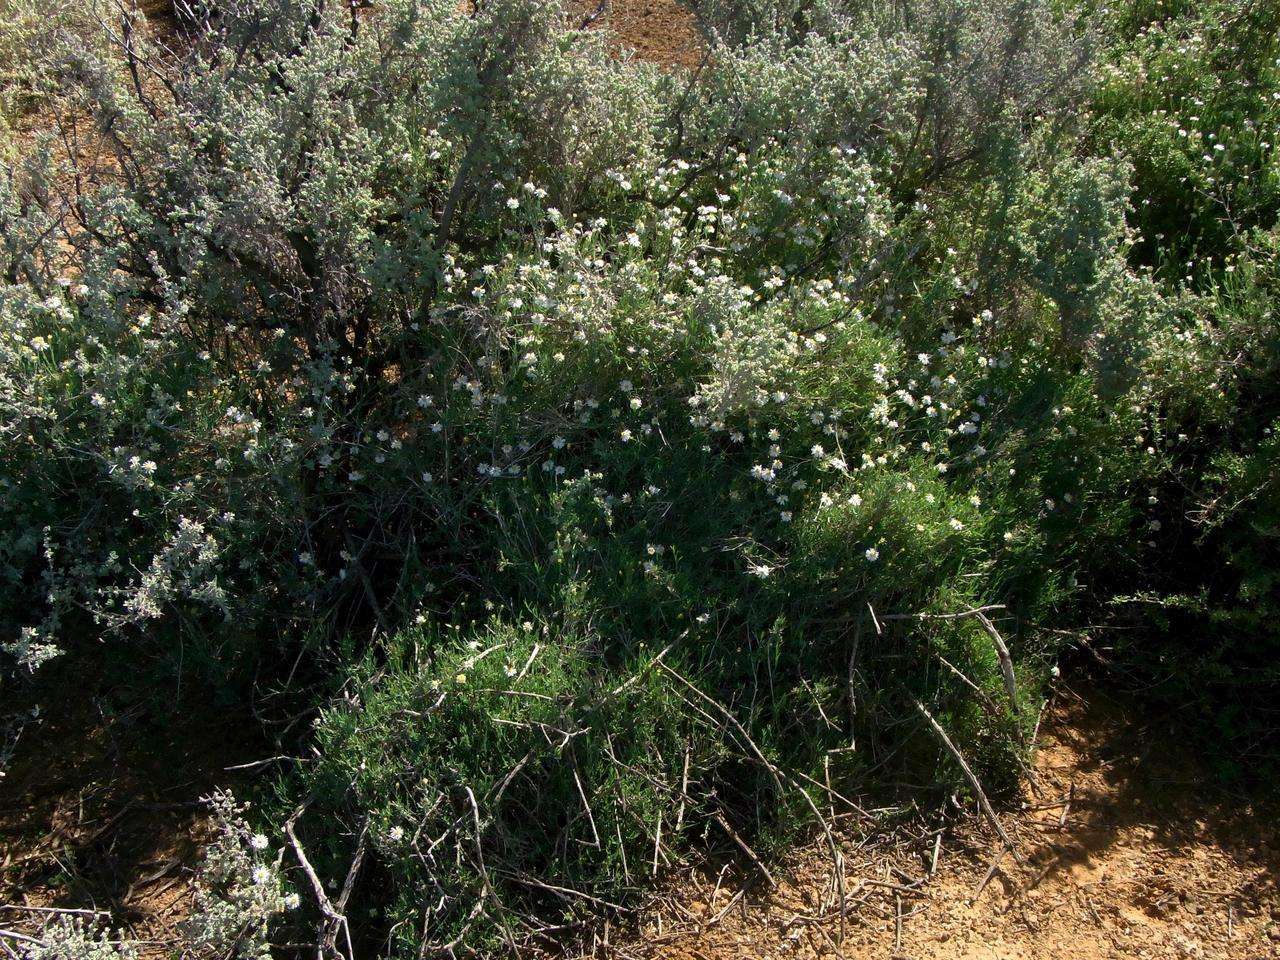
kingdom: Plantae
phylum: Tracheophyta
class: Magnoliopsida
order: Asterales
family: Asteraceae
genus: Minuria
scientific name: Minuria cunninghamii
